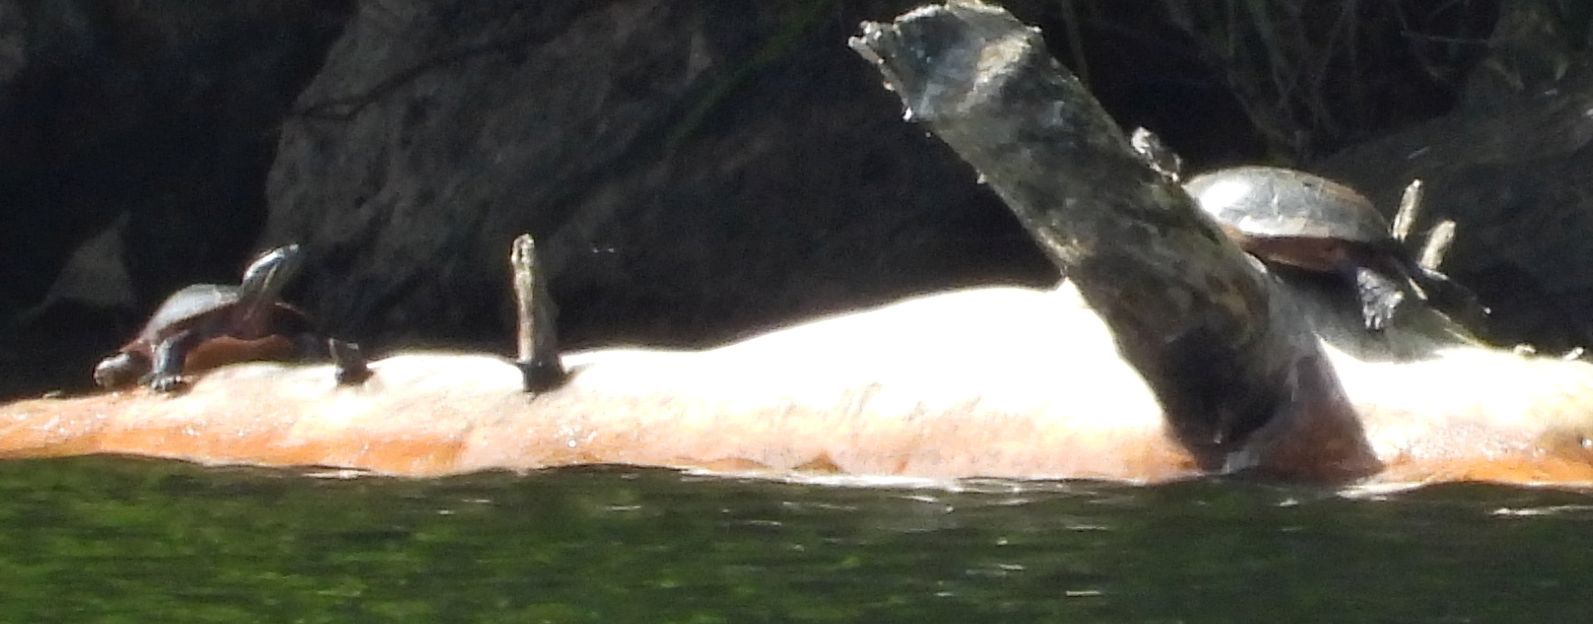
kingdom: Animalia
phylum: Chordata
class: Testudines
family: Emydidae
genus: Chrysemys
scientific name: Chrysemys picta
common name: Painted turtle
